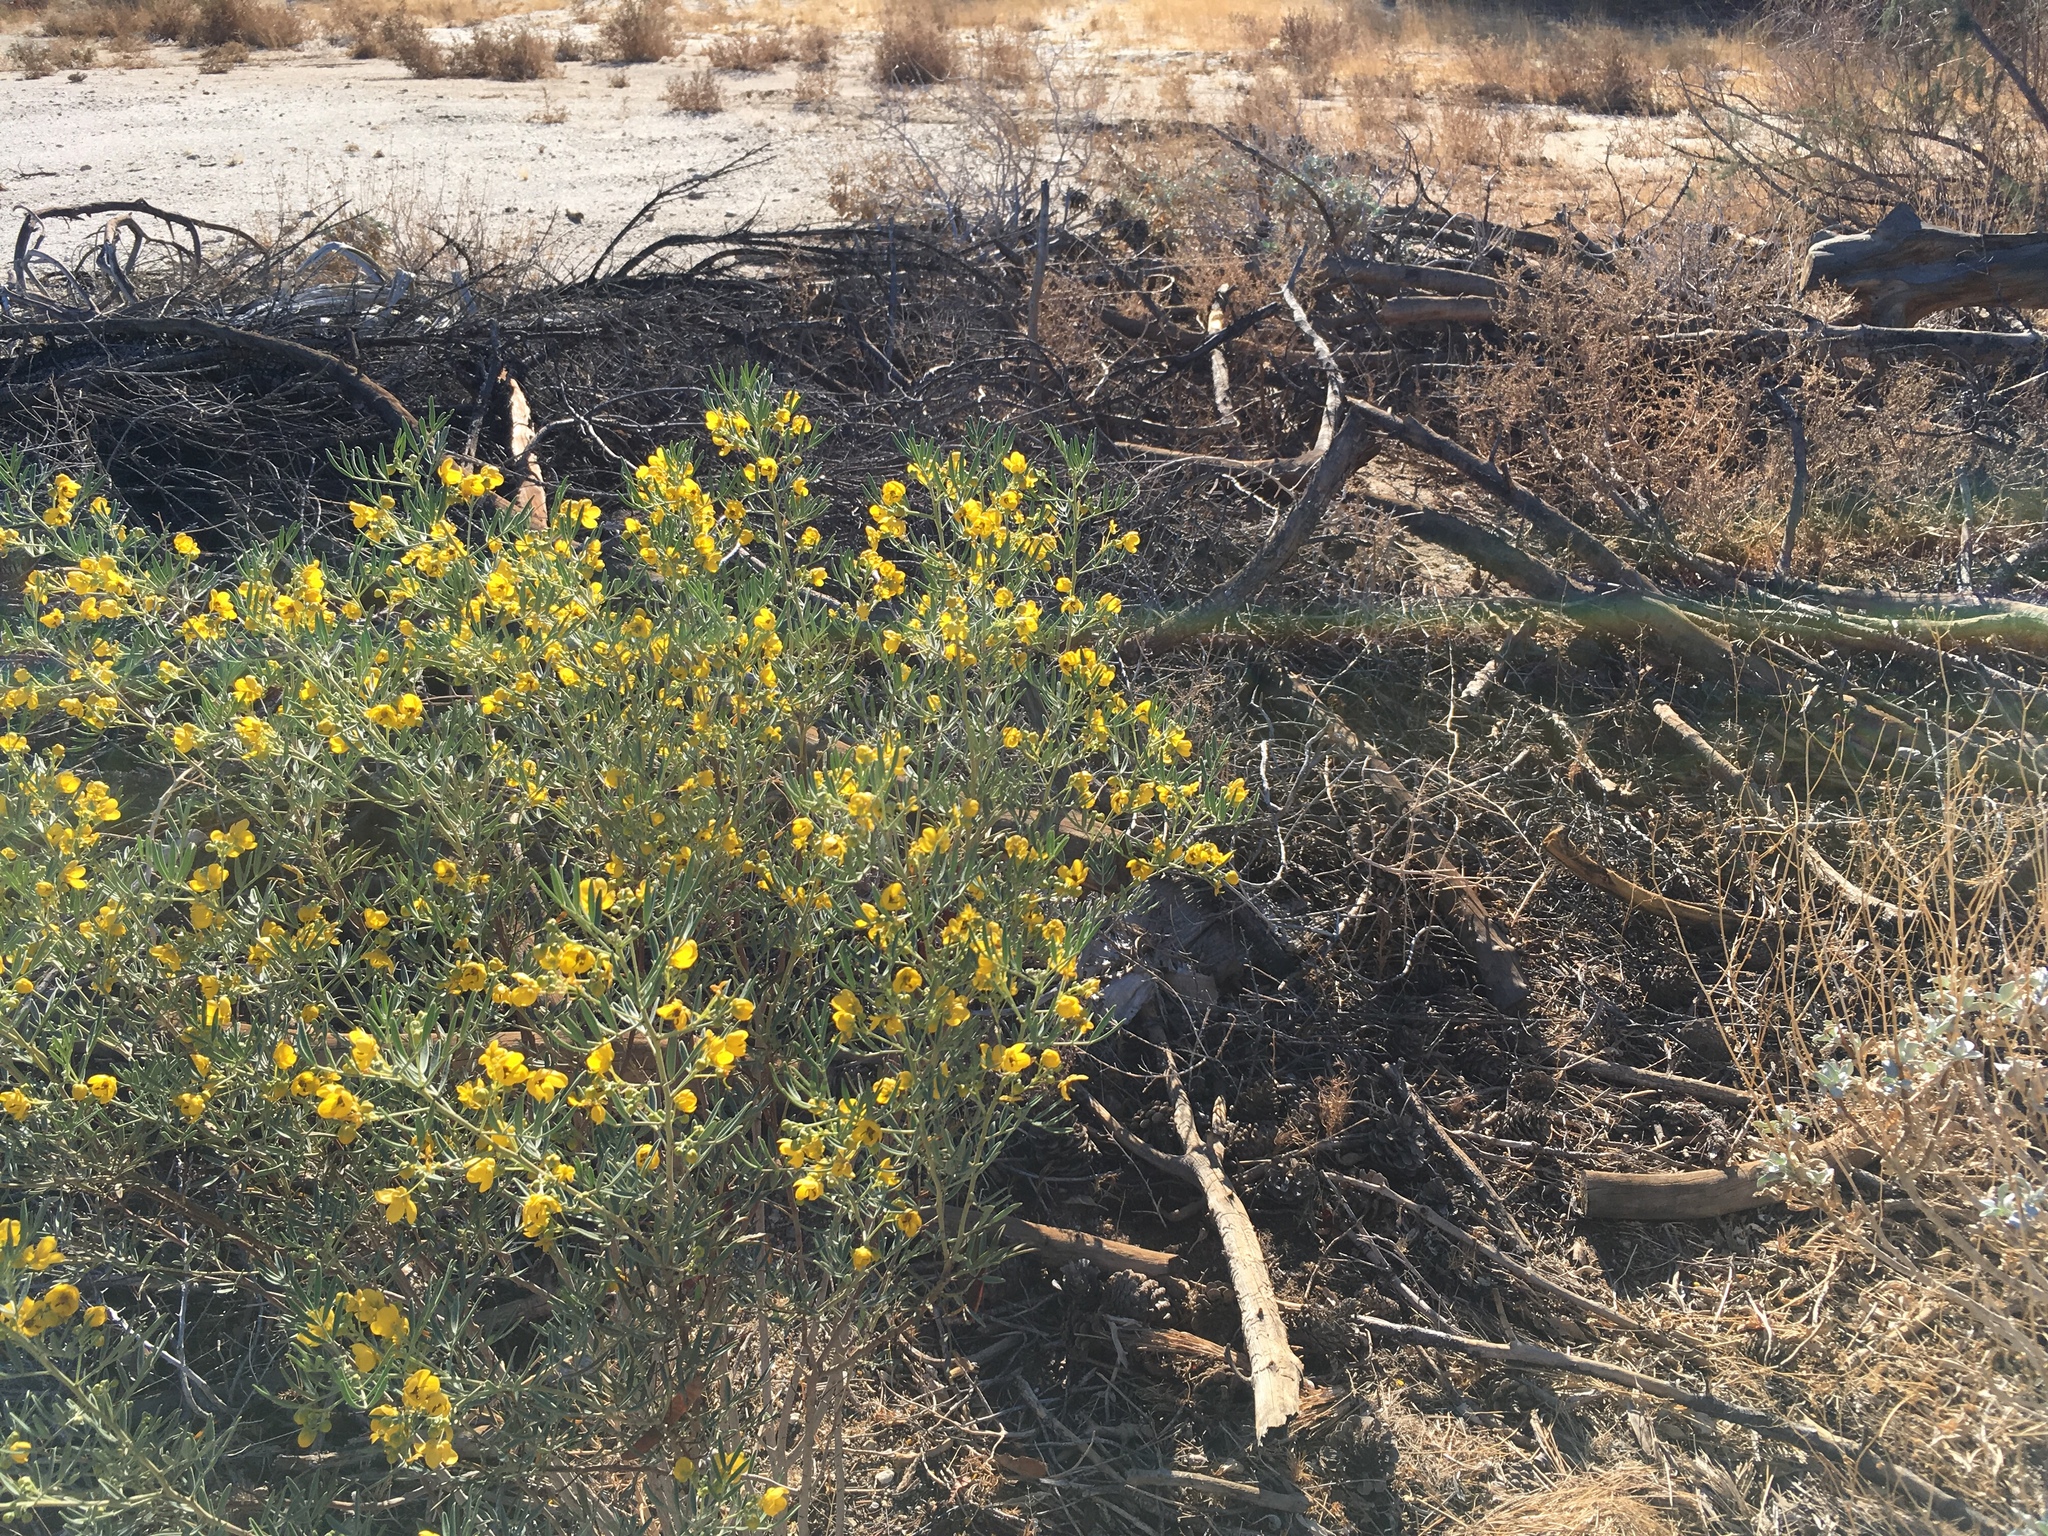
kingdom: Plantae
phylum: Tracheophyta
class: Magnoliopsida
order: Fabales
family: Fabaceae
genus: Senna
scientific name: Senna artemisioides
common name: Burnt-leaved acacia
